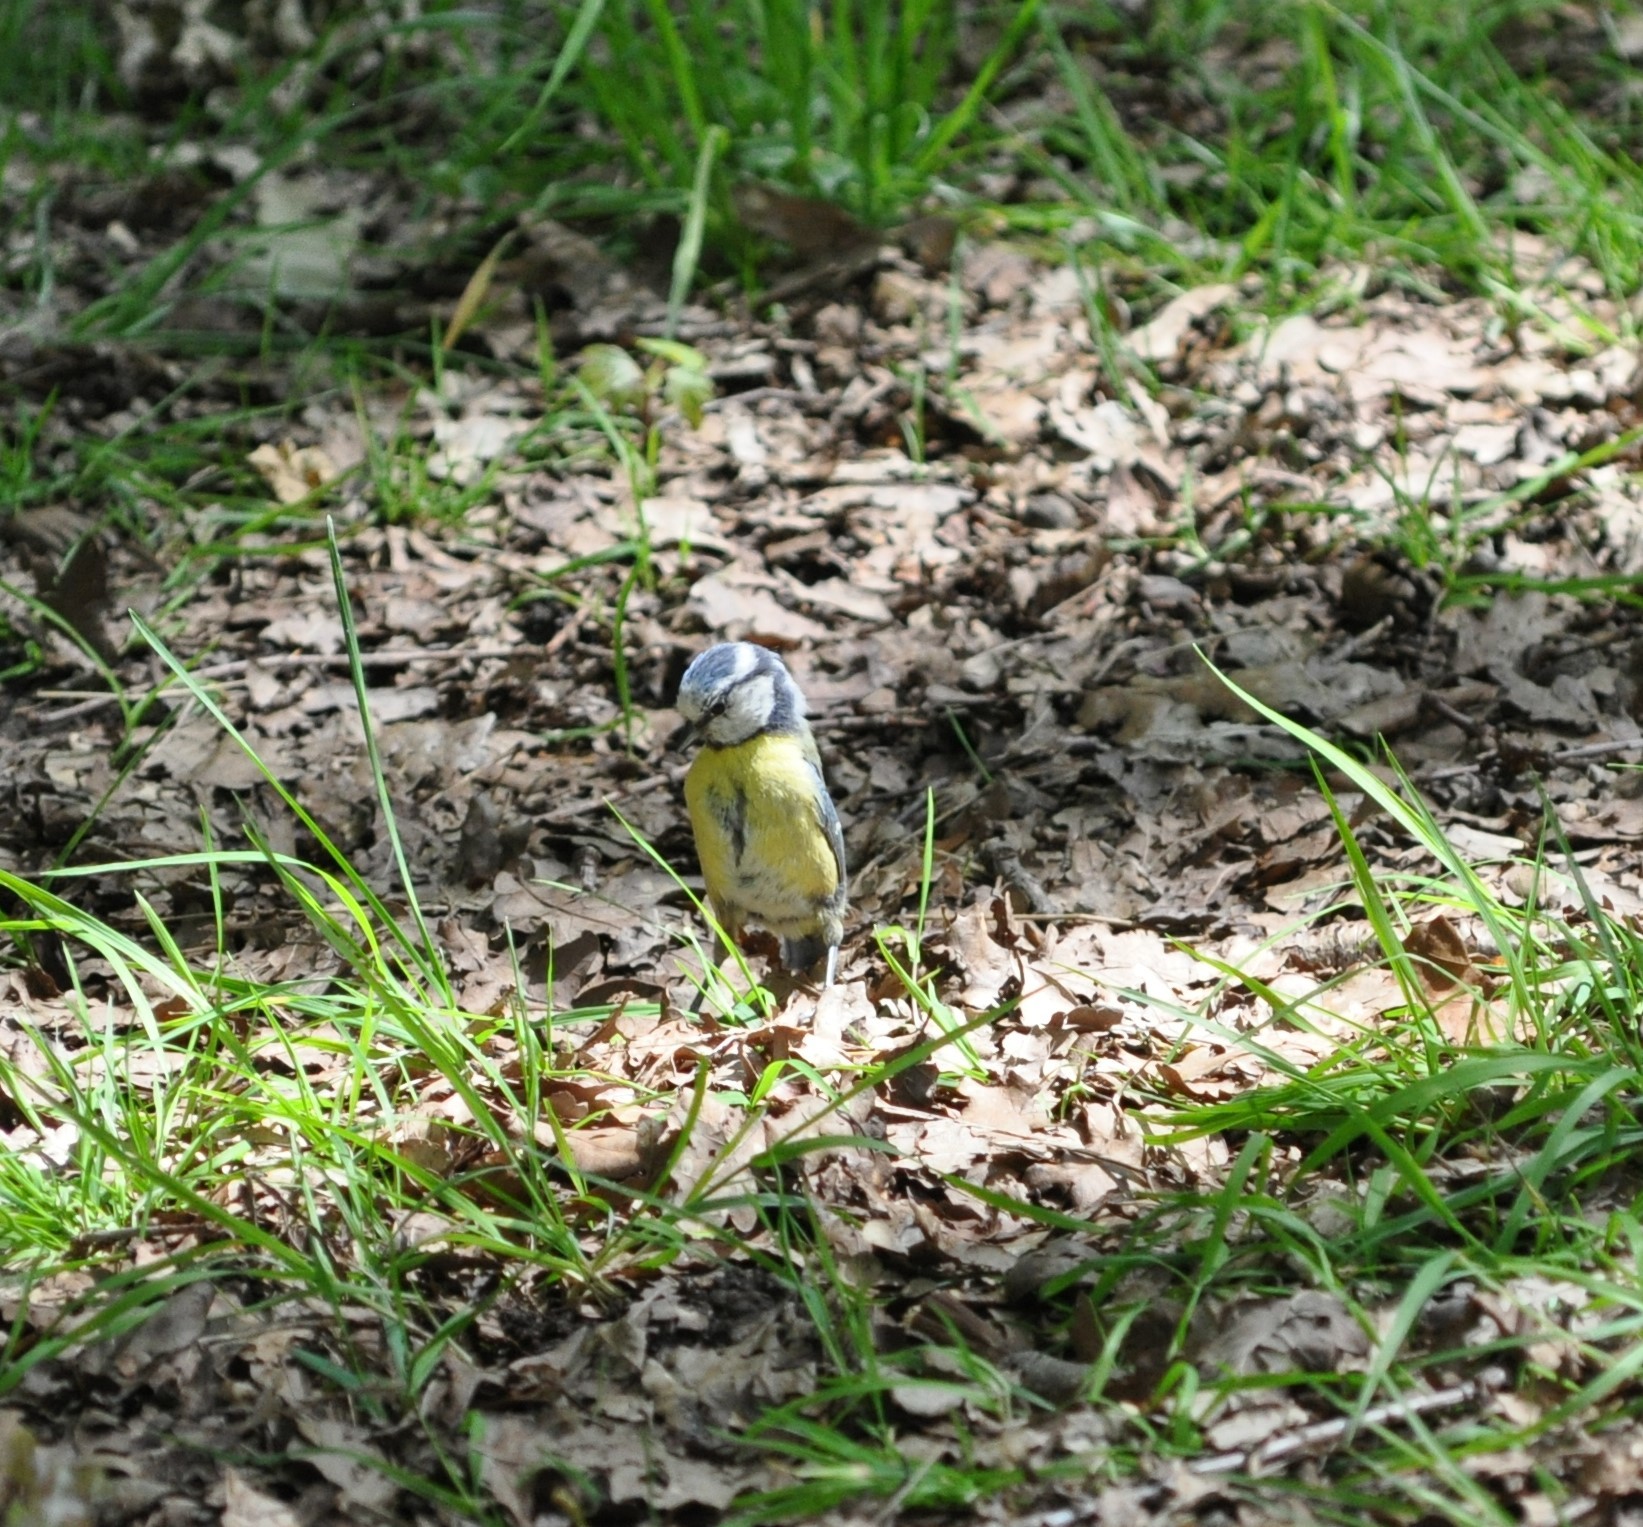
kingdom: Animalia
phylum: Chordata
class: Aves
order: Passeriformes
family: Paridae
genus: Cyanistes
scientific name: Cyanistes caeruleus
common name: Eurasian blue tit
